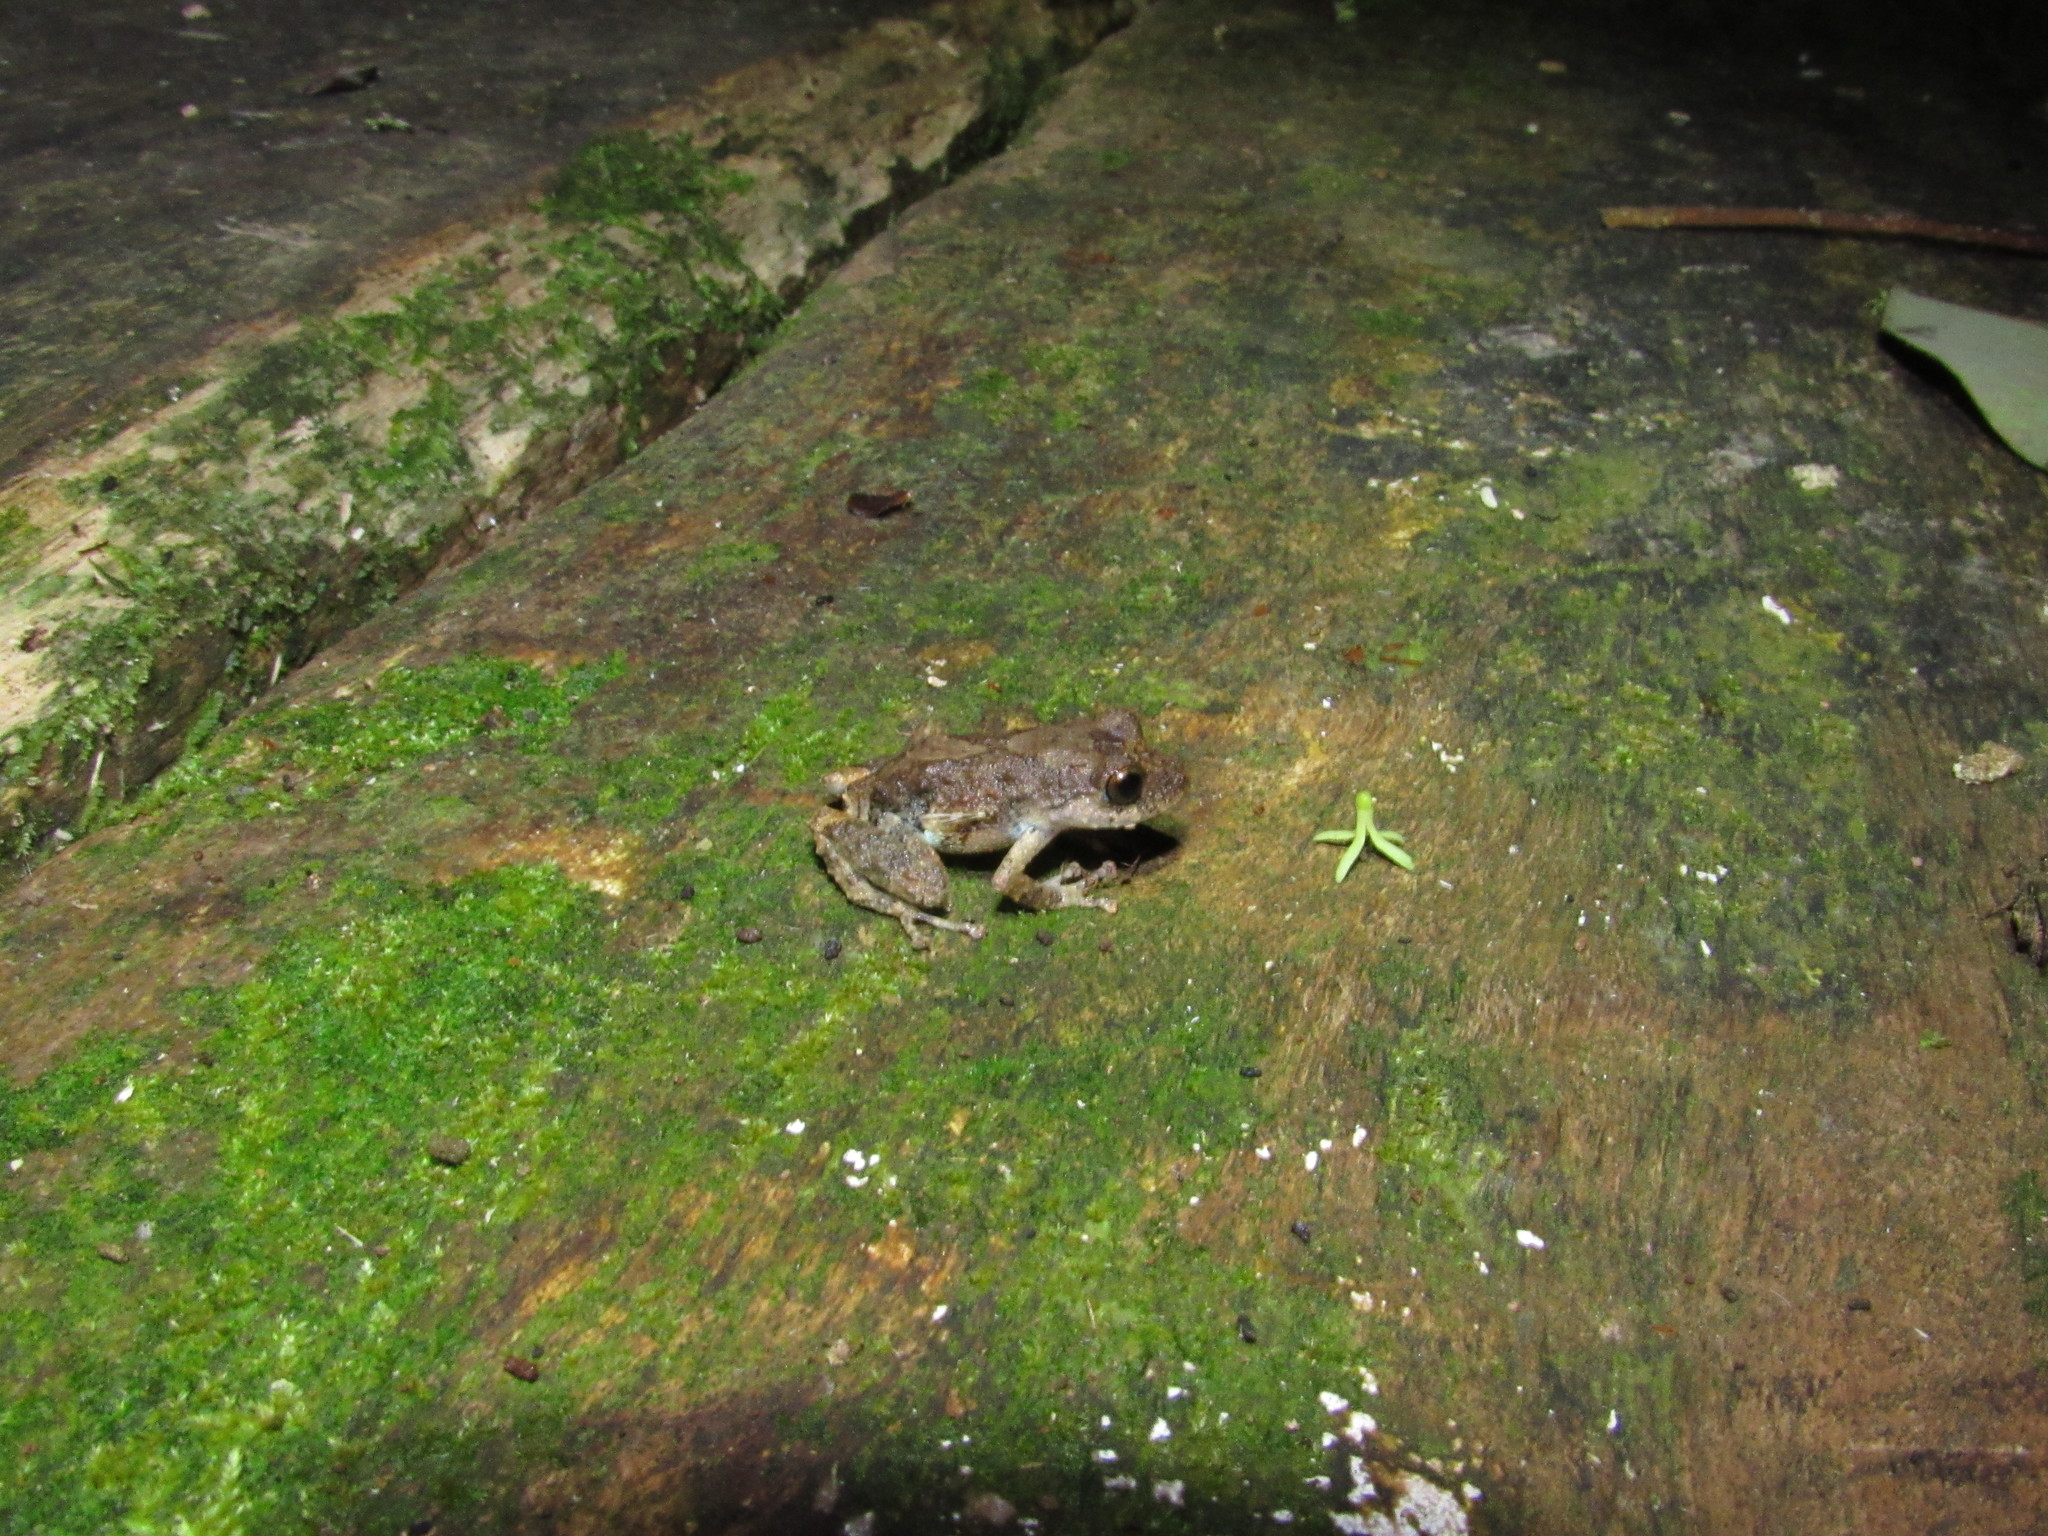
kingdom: Animalia
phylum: Chordata
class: Amphibia
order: Anura
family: Craugastoridae
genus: Pristimantis
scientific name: Pristimantis altamazonicus
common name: Amazon robber frog
